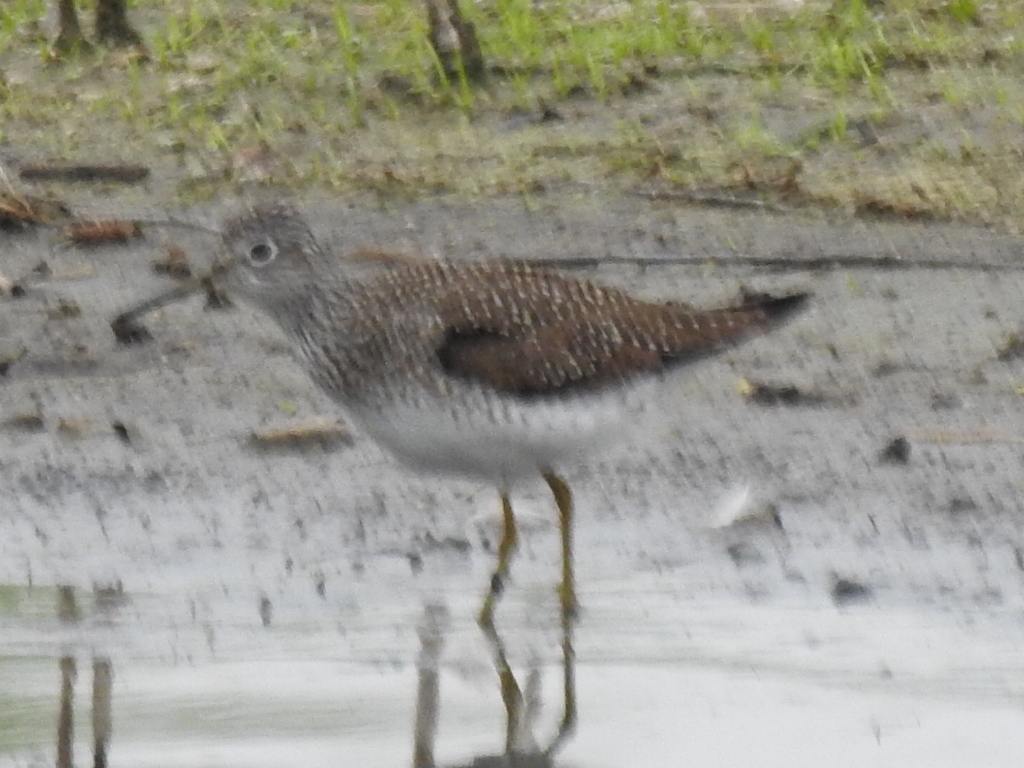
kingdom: Animalia
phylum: Chordata
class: Aves
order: Charadriiformes
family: Scolopacidae
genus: Tringa
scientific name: Tringa solitaria
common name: Solitary sandpiper
